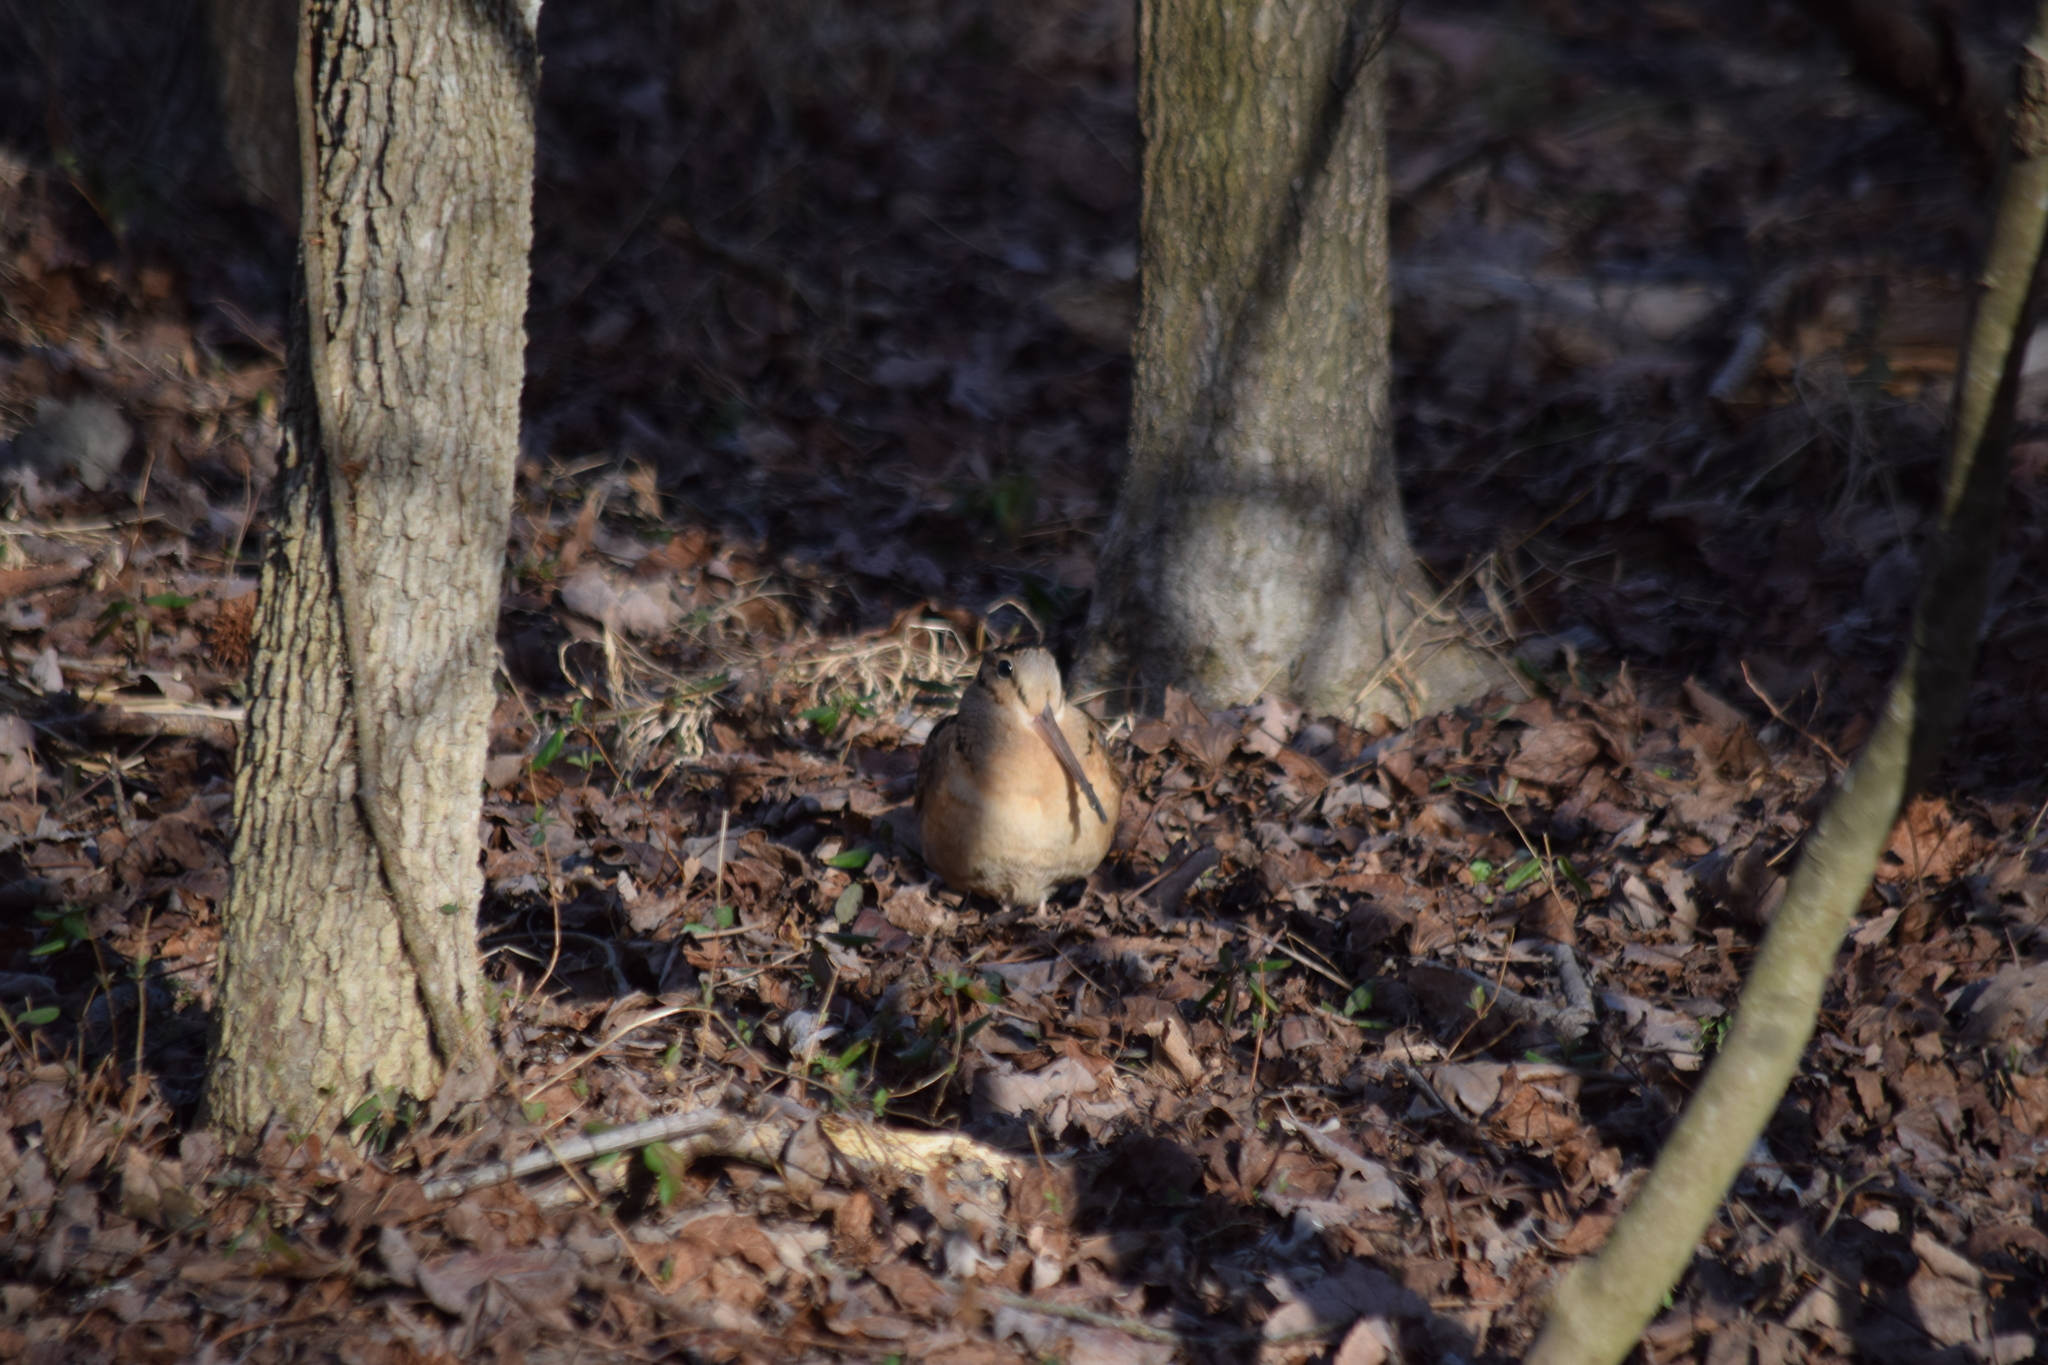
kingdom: Animalia
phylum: Chordata
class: Aves
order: Charadriiformes
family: Scolopacidae
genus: Scolopax
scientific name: Scolopax minor
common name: American woodcock
